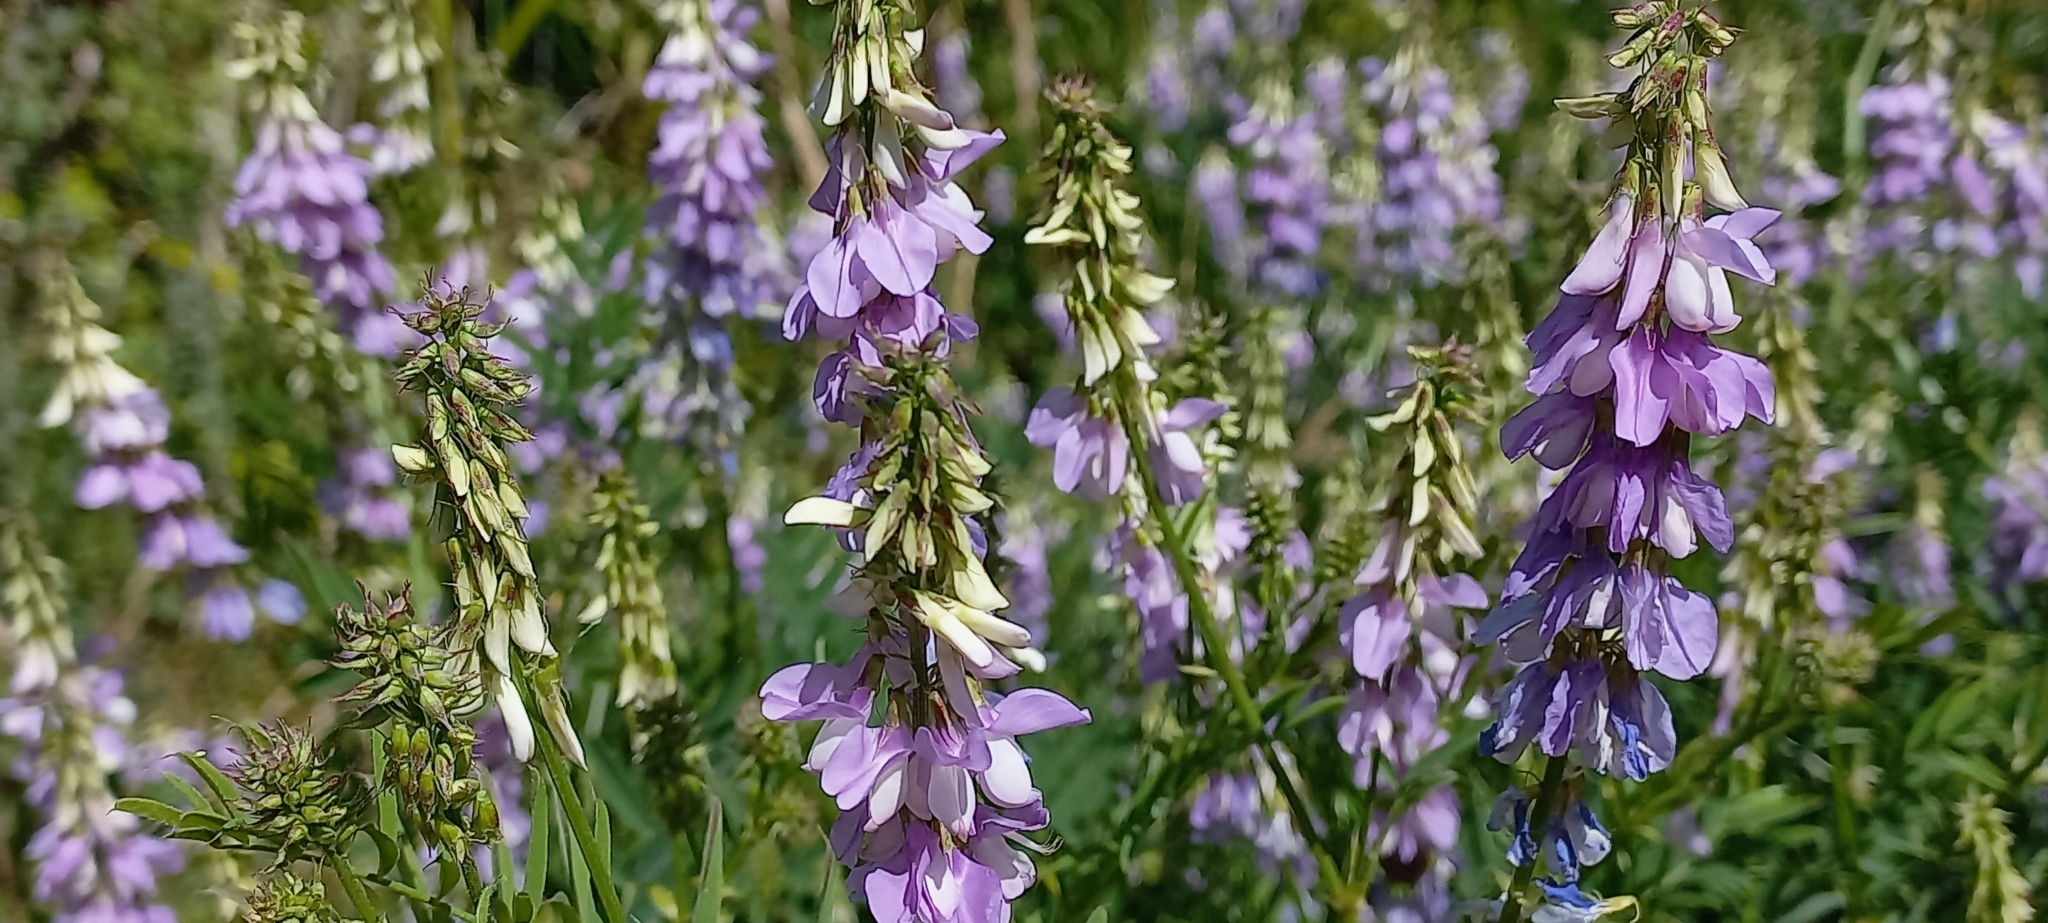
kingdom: Plantae
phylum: Tracheophyta
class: Magnoliopsida
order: Fabales
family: Fabaceae
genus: Galega
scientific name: Galega officinalis
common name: Goat's-rue
